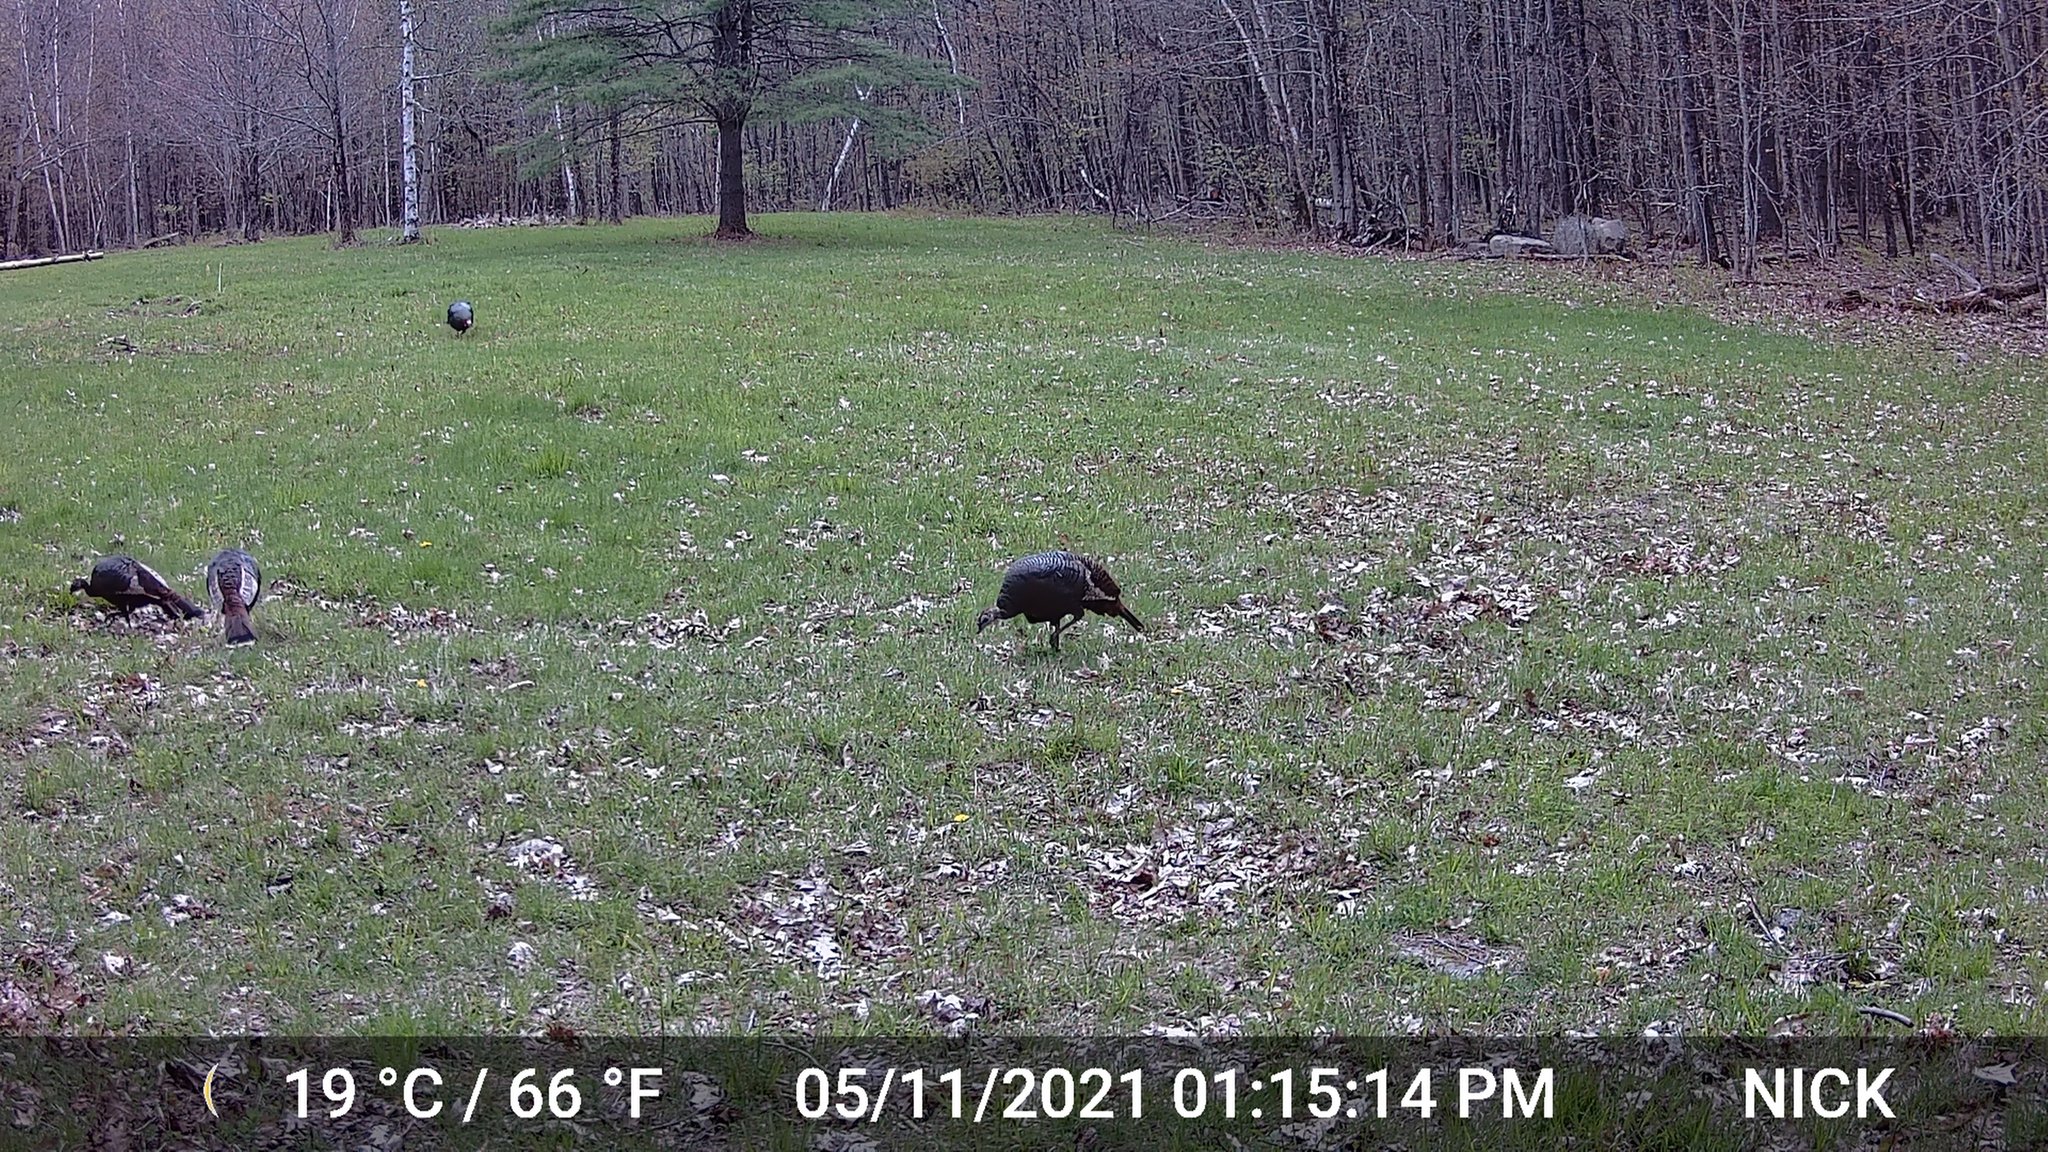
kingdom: Animalia
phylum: Chordata
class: Aves
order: Galliformes
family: Phasianidae
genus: Meleagris
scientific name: Meleagris gallopavo
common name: Wild turkey
